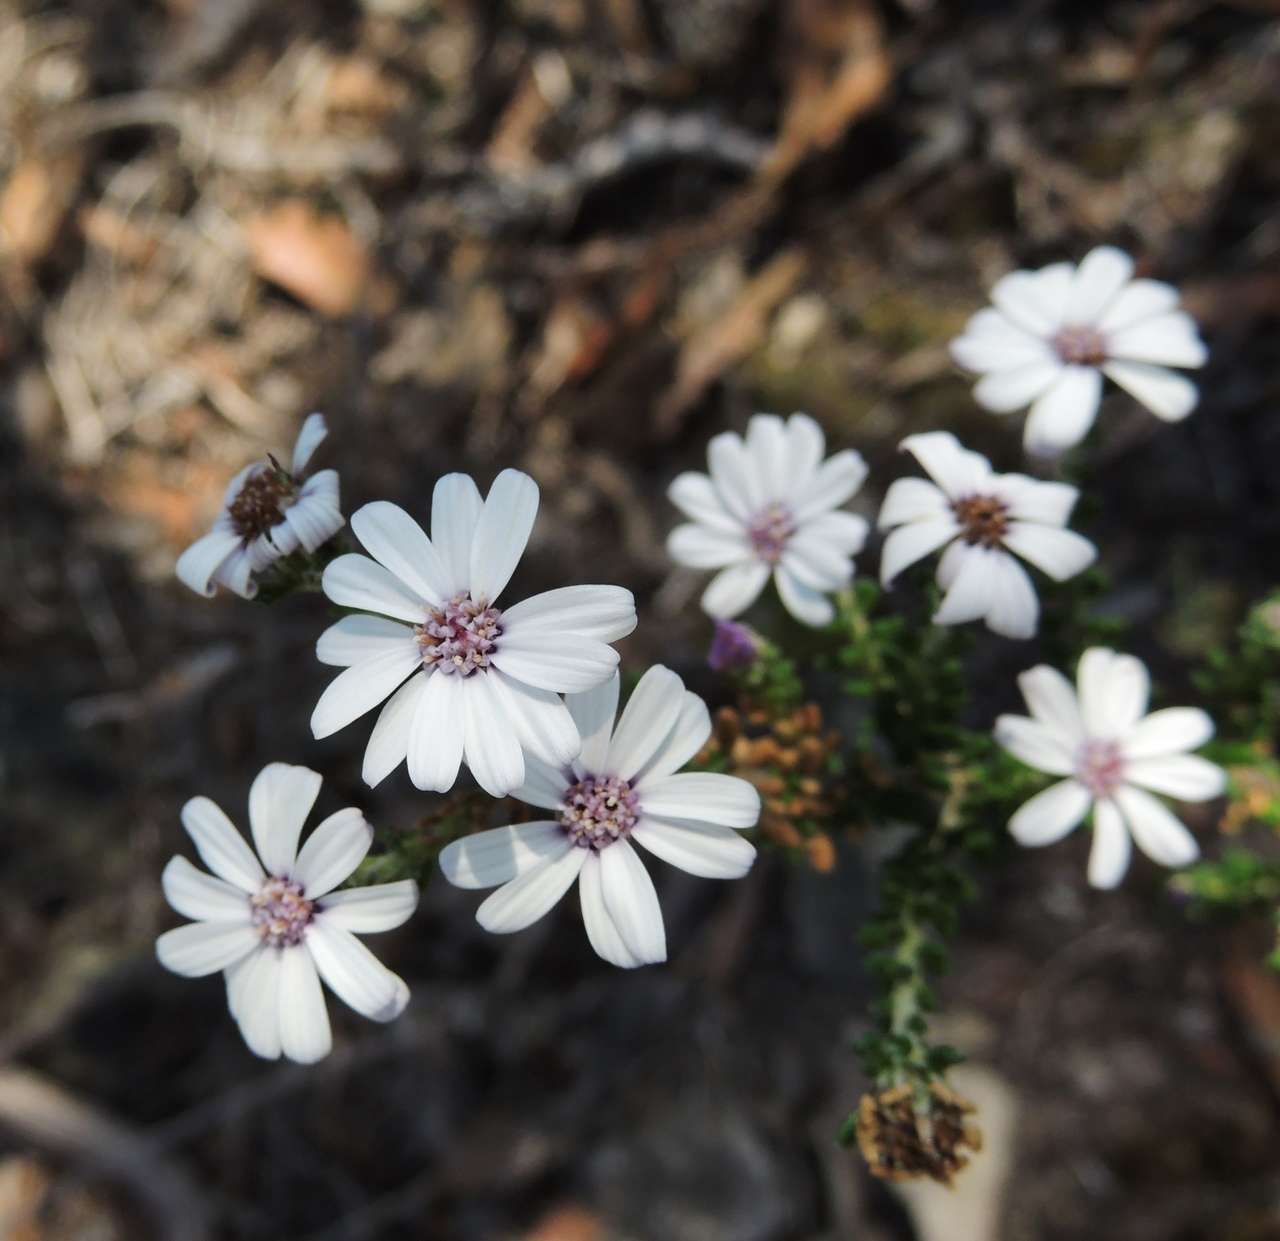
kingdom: Plantae
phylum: Tracheophyta
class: Magnoliopsida
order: Asterales
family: Asteraceae
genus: Olearia
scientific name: Olearia minor
